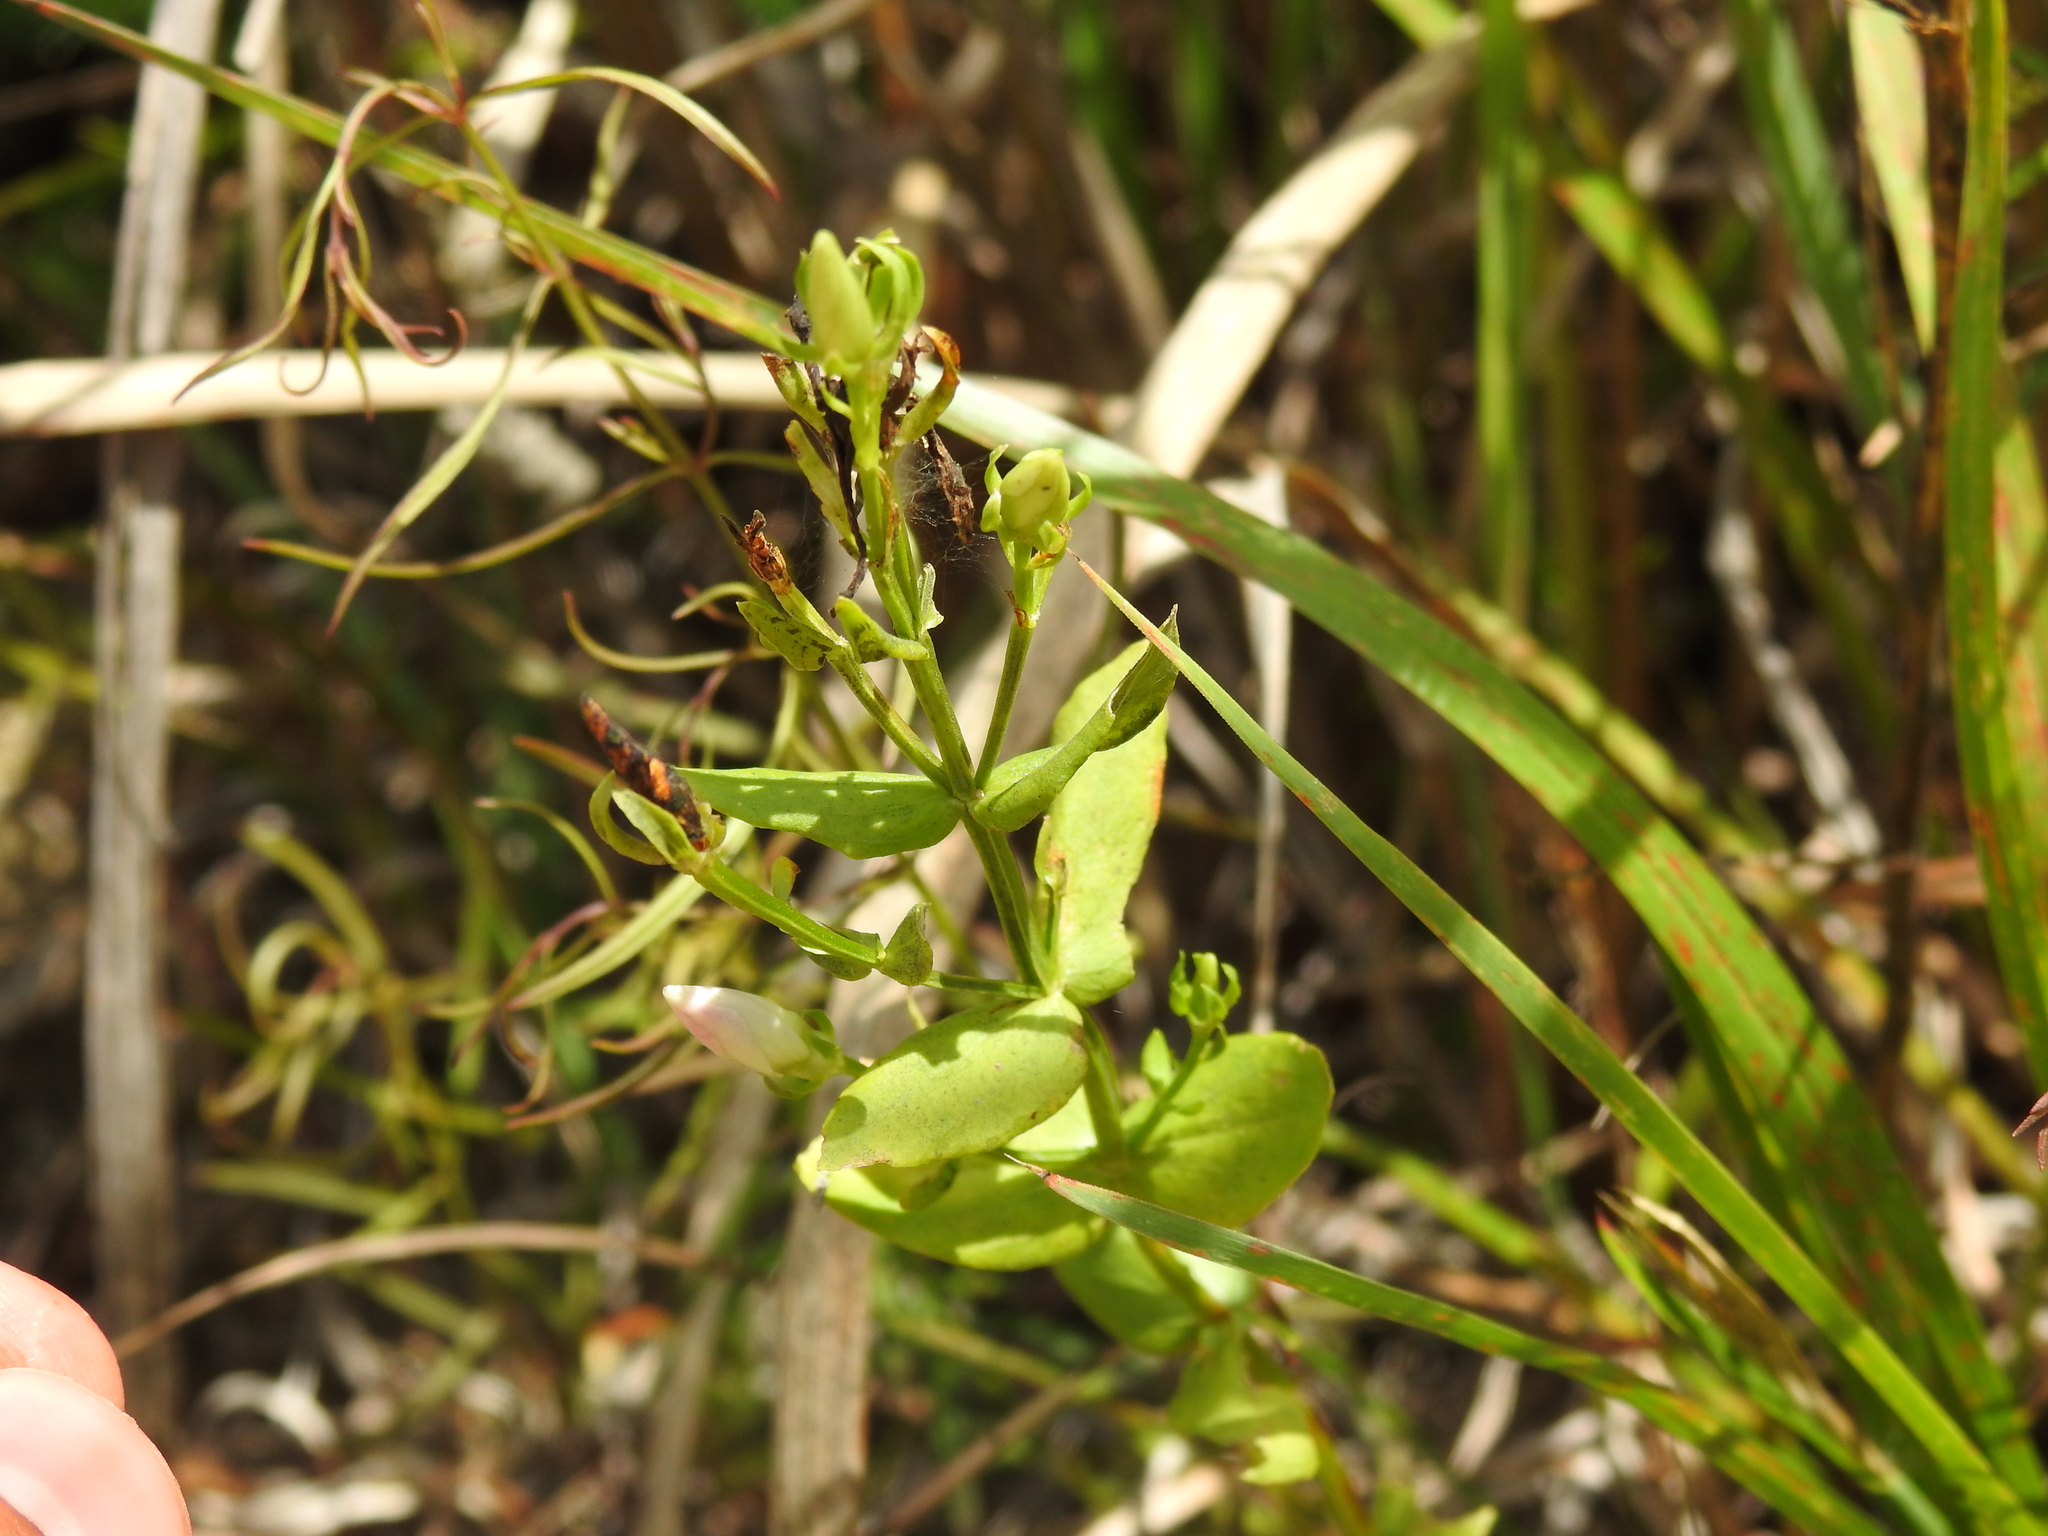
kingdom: Plantae
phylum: Tracheophyta
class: Magnoliopsida
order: Gentianales
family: Gentianaceae
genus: Sabatia
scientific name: Sabatia angularis
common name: Rose-pink
